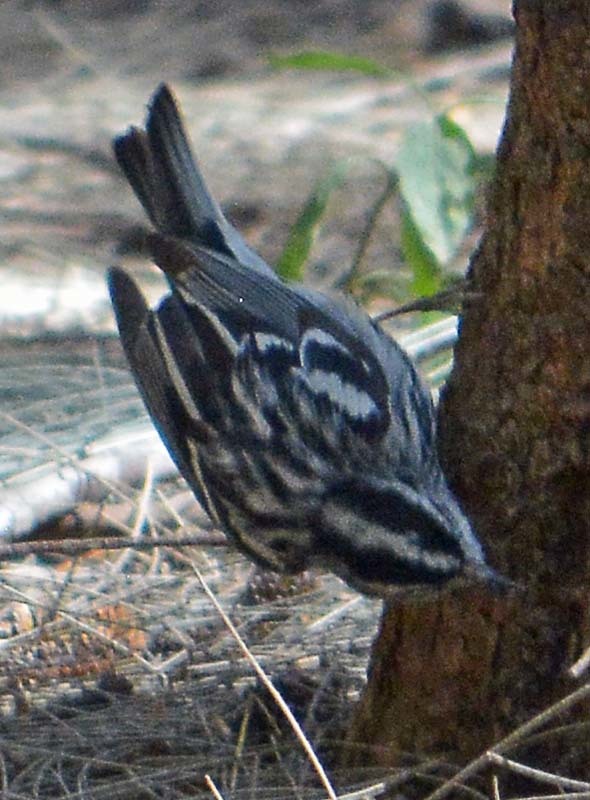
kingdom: Animalia
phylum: Chordata
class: Aves
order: Passeriformes
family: Parulidae
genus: Mniotilta
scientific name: Mniotilta varia
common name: Black-and-white warbler
